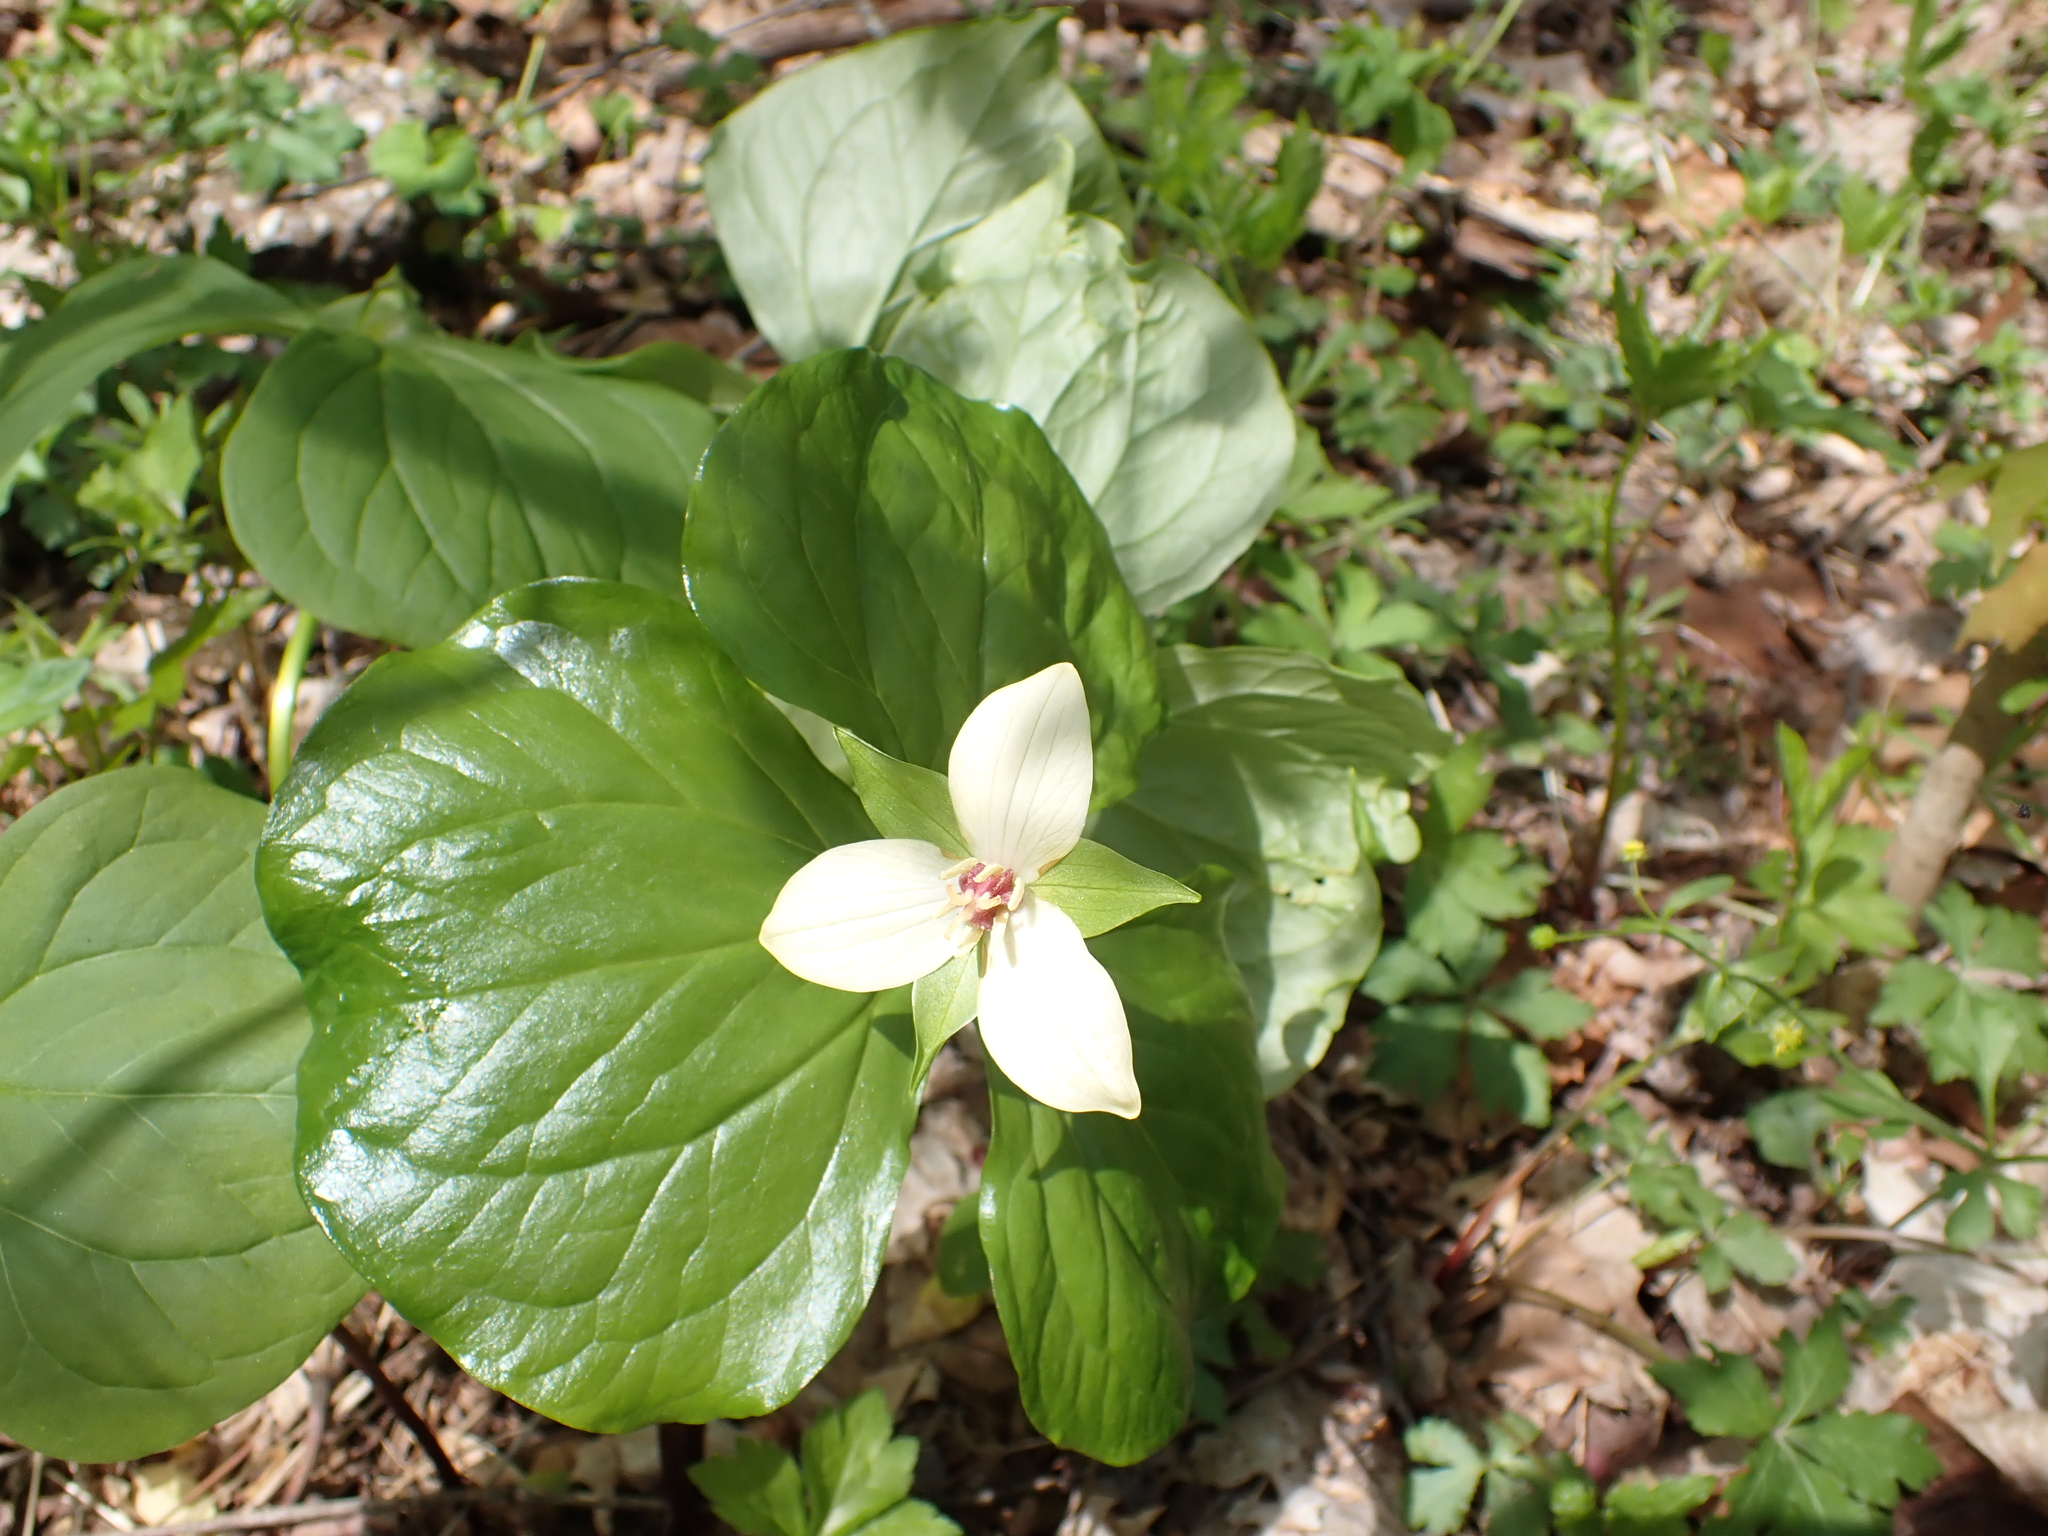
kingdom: Plantae
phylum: Tracheophyta
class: Liliopsida
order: Liliales
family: Melanthiaceae
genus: Trillium
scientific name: Trillium erectum
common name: Purple trillium
